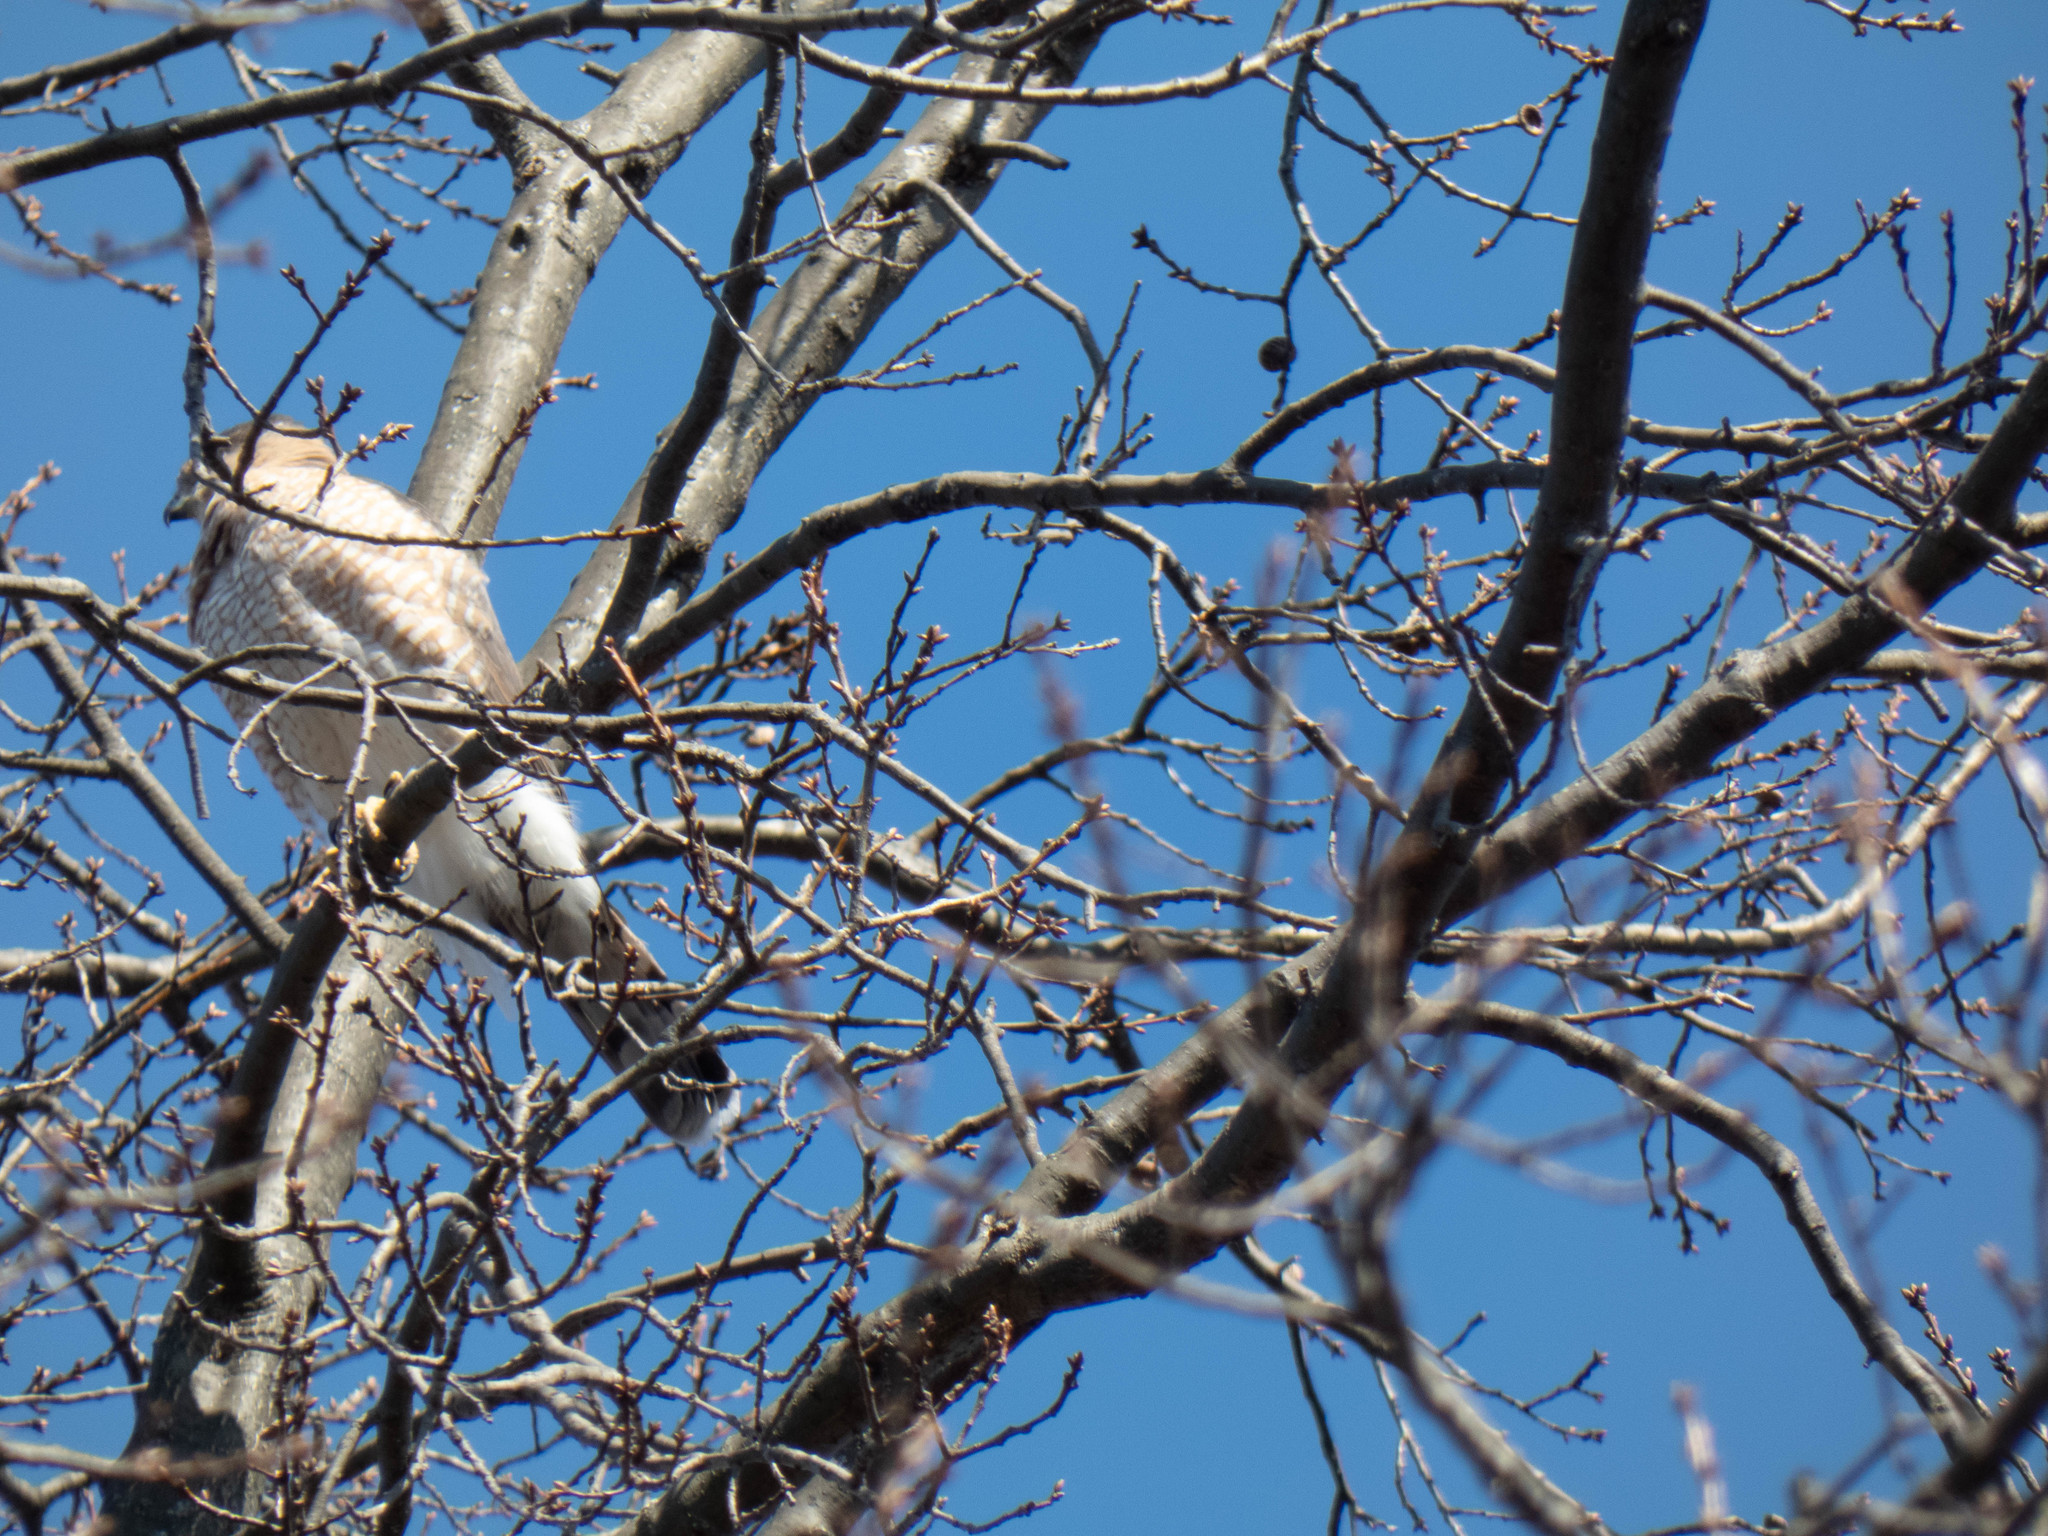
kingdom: Animalia
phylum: Chordata
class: Aves
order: Accipitriformes
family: Accipitridae
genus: Accipiter
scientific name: Accipiter cooperii
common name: Cooper's hawk
